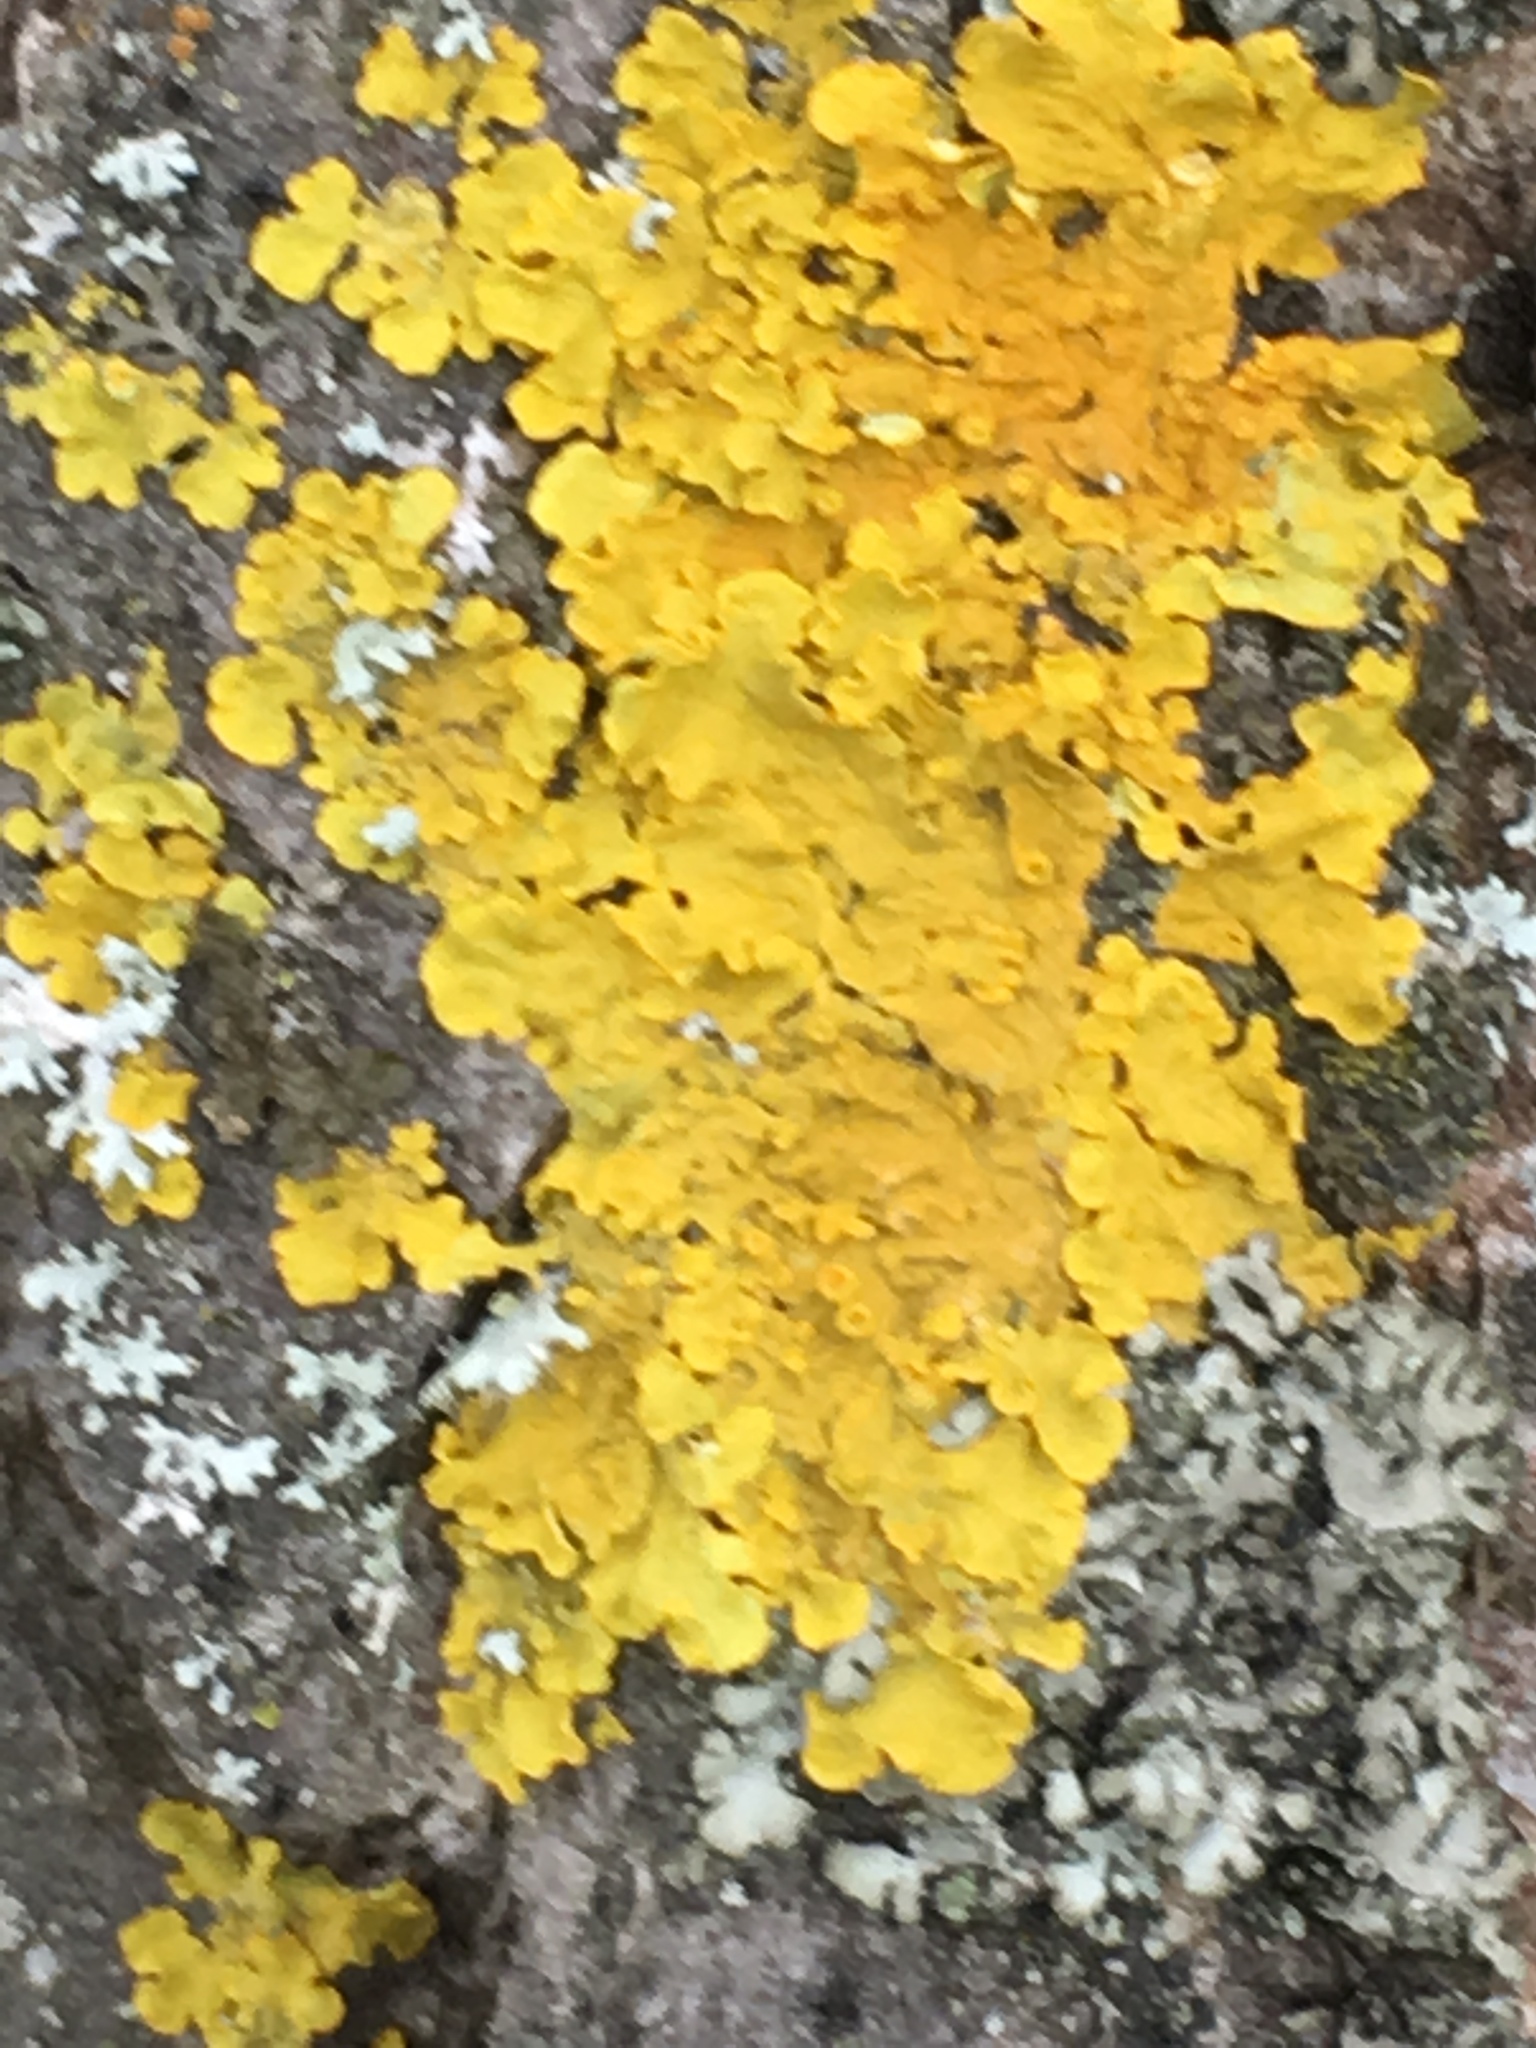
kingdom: Fungi
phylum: Ascomycota
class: Lecanoromycetes
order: Teloschistales
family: Teloschistaceae
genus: Xanthoria
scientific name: Xanthoria parietina
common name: Common orange lichen
